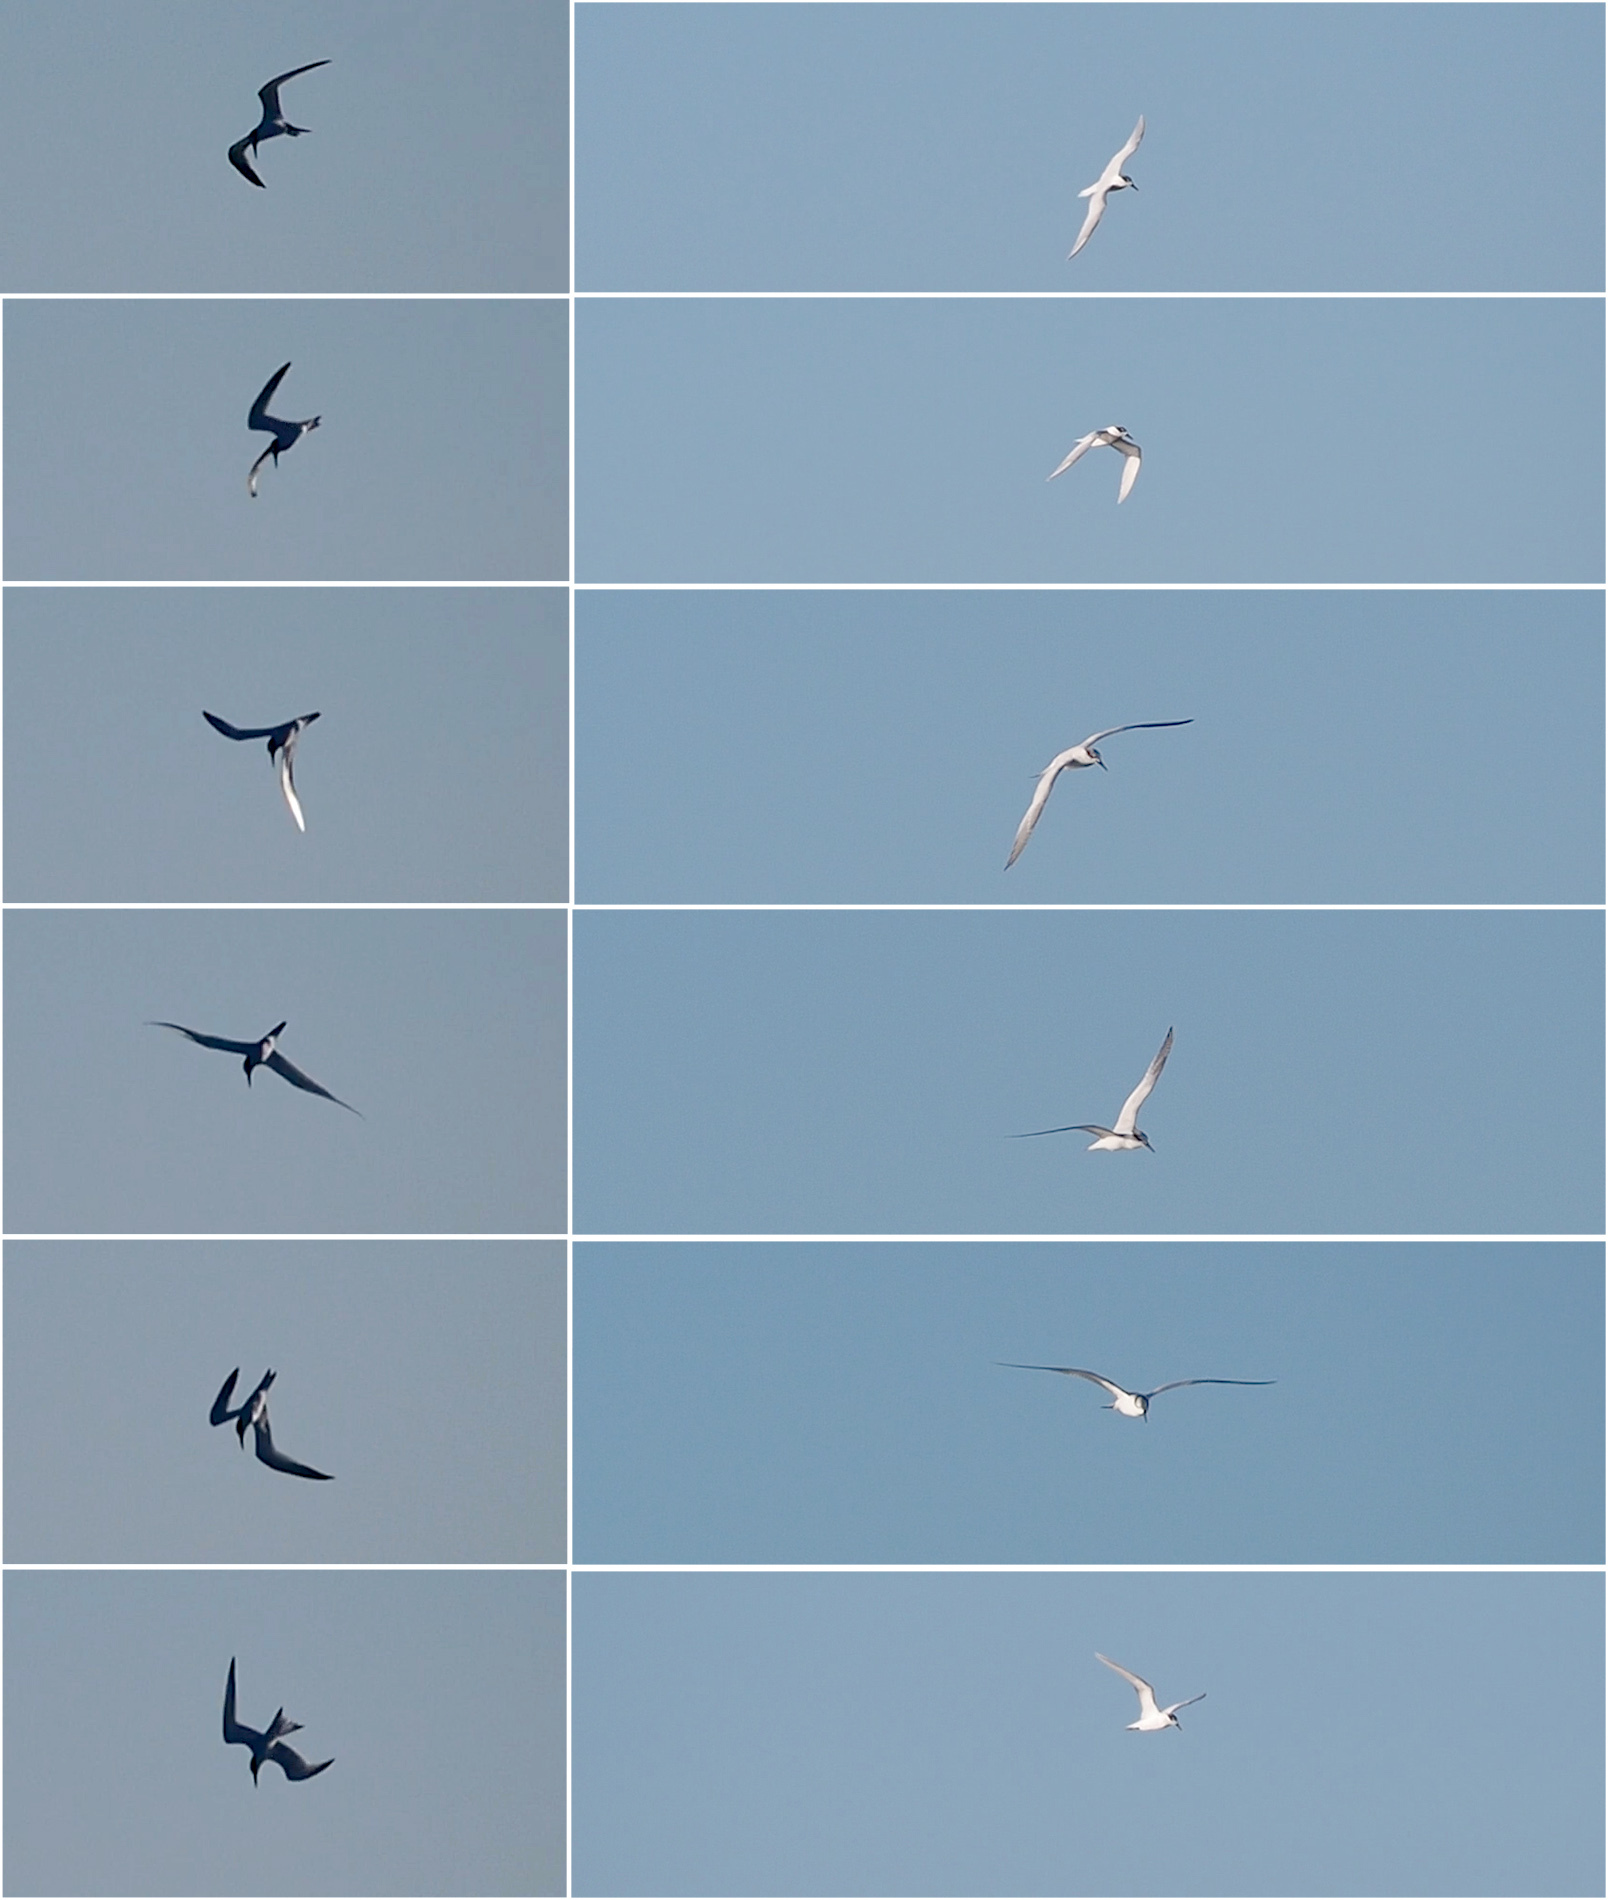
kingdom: Animalia
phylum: Chordata
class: Aves
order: Charadriiformes
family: Laridae
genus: Thalasseus
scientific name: Thalasseus sandvicensis
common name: Sandwich tern
